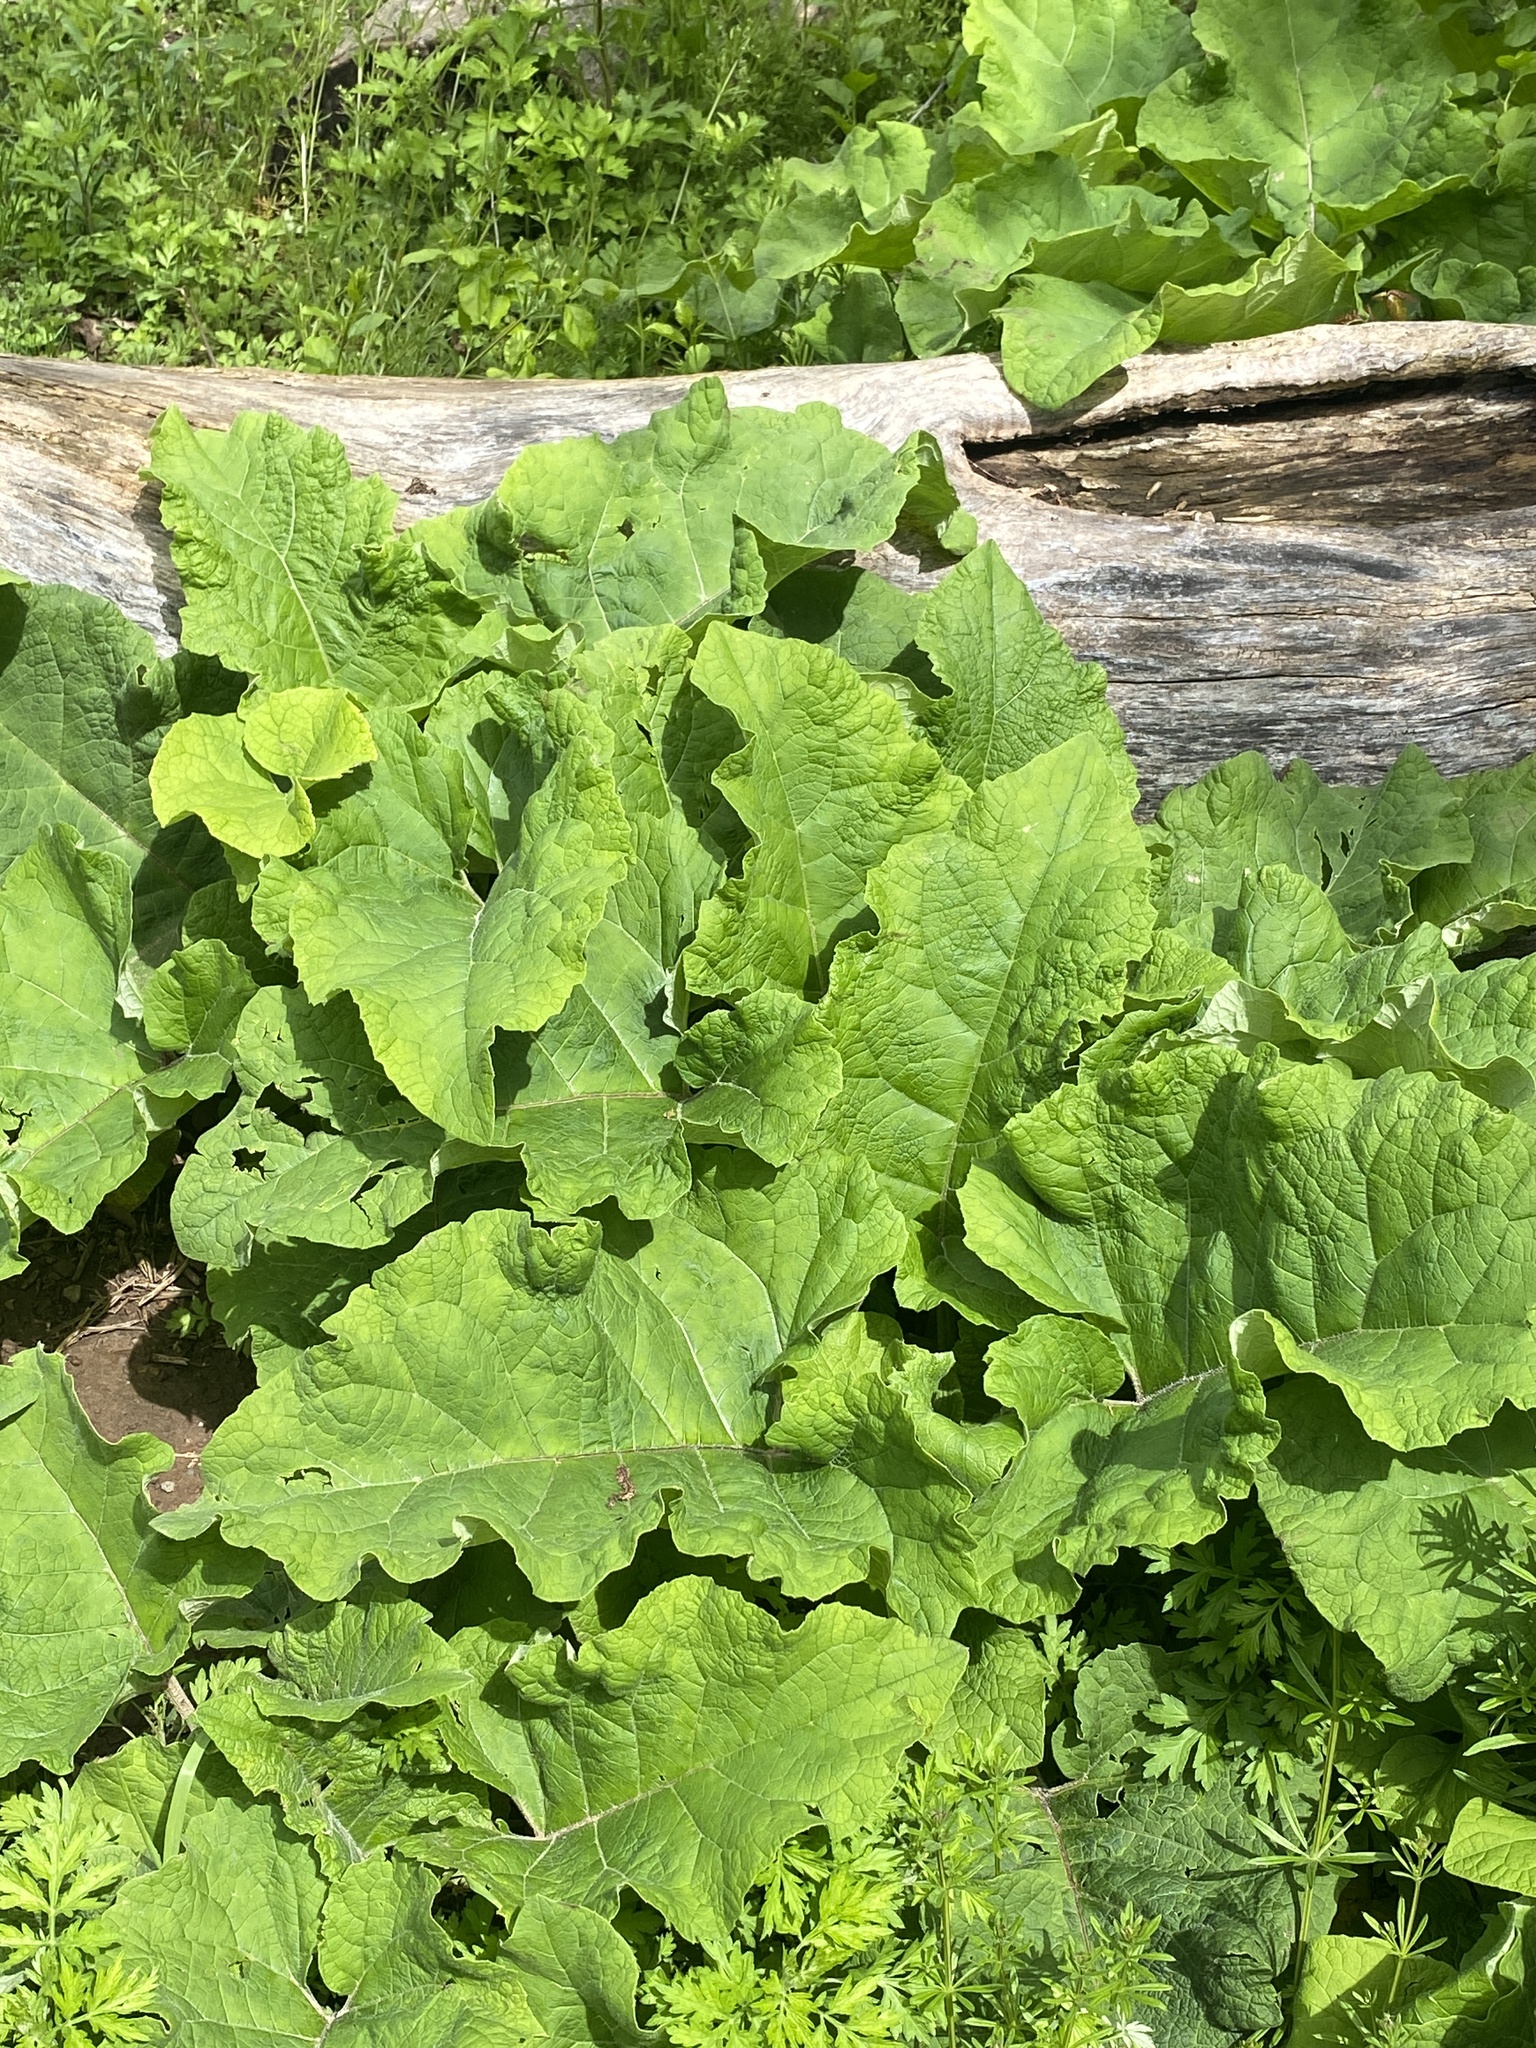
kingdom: Plantae
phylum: Tracheophyta
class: Magnoliopsida
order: Asterales
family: Asteraceae
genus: Arctium
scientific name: Arctium minus
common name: Lesser burdock
